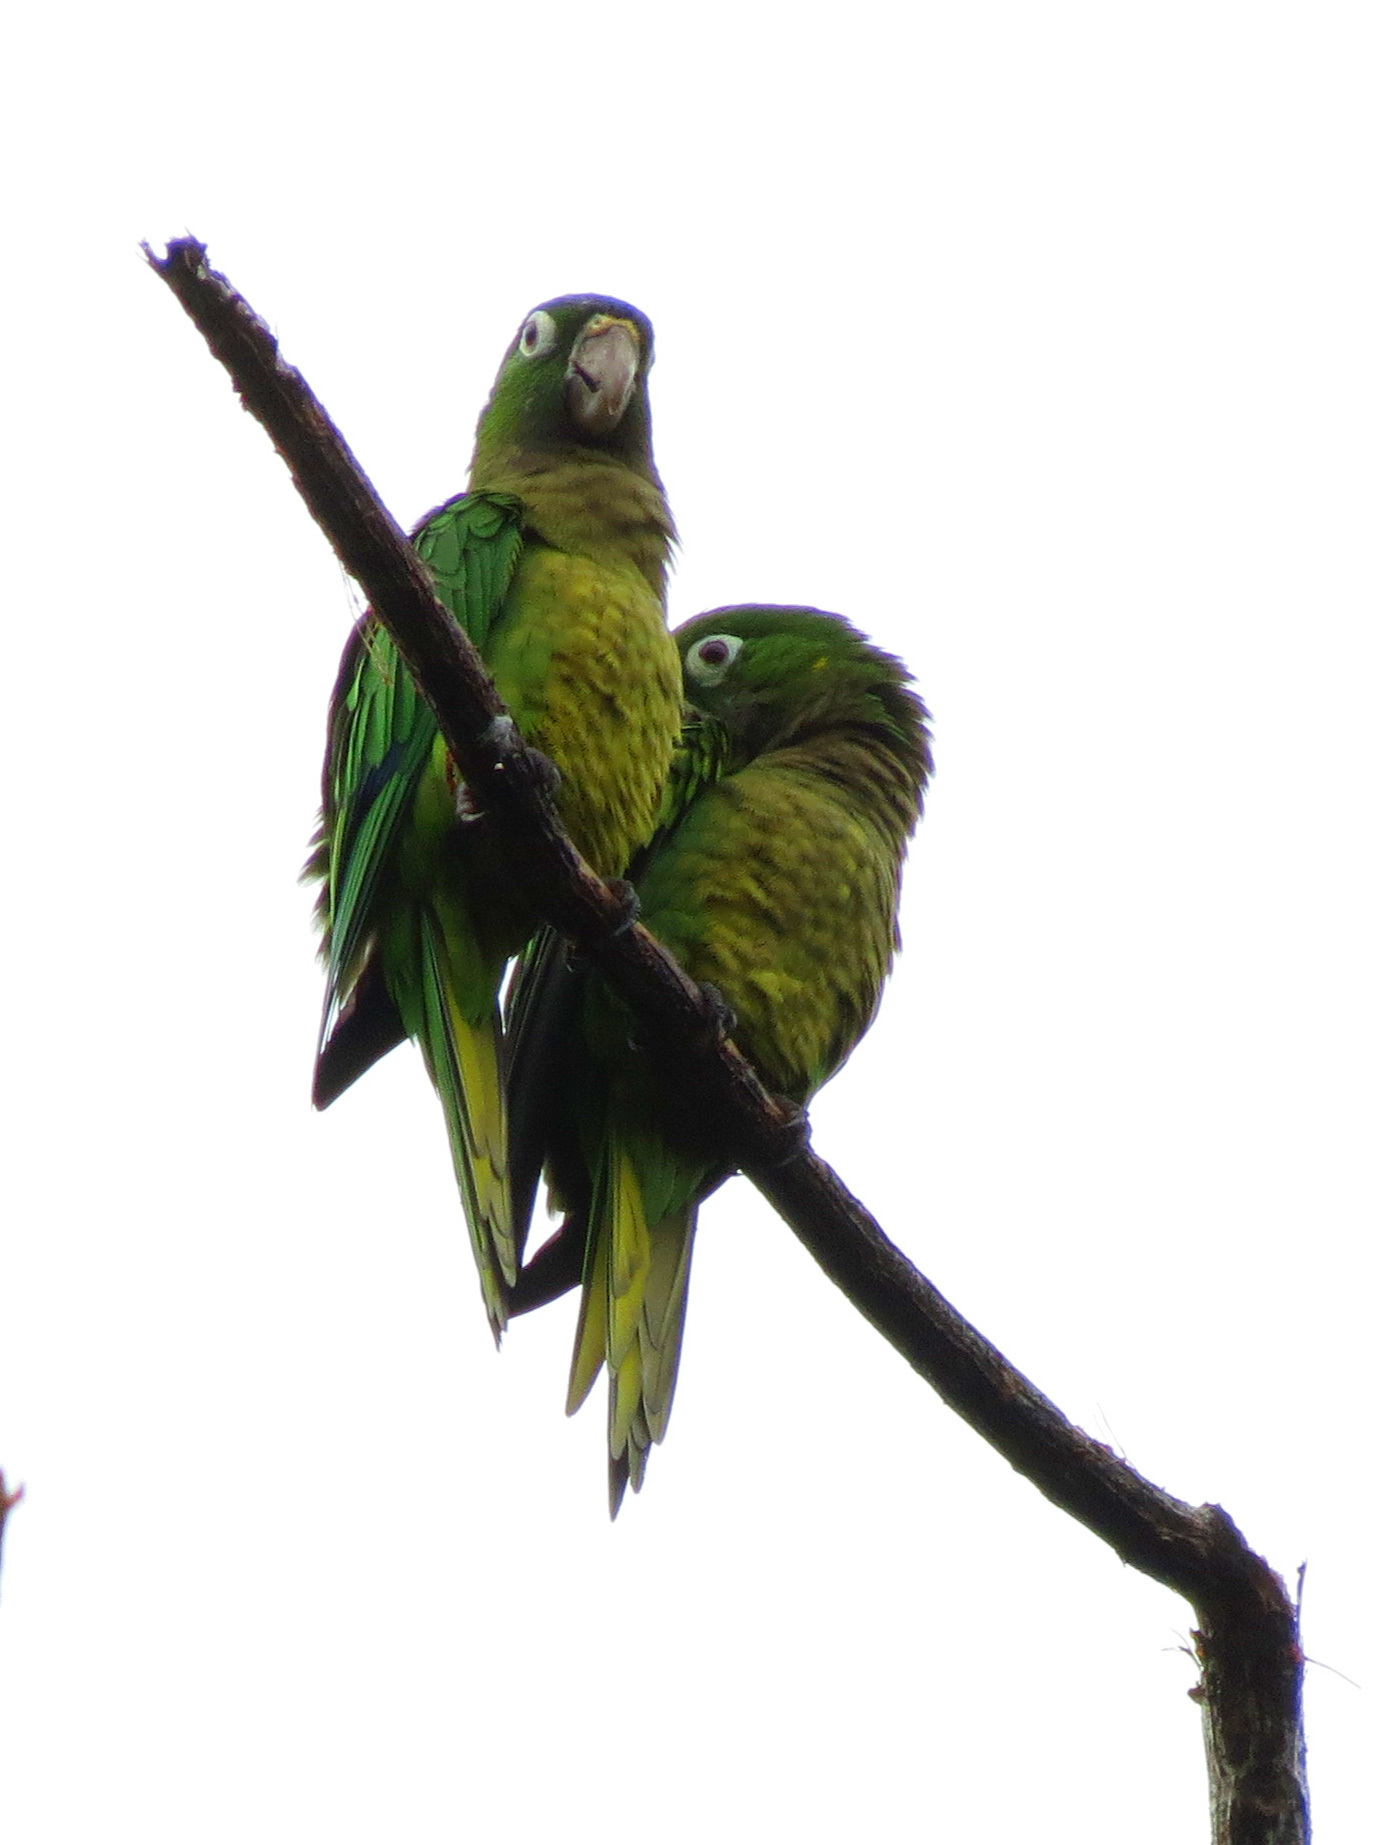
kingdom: Animalia
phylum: Chordata
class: Aves
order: Psittaciformes
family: Psittacidae
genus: Aratinga
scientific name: Aratinga nana
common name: Olive-throated parakeet
